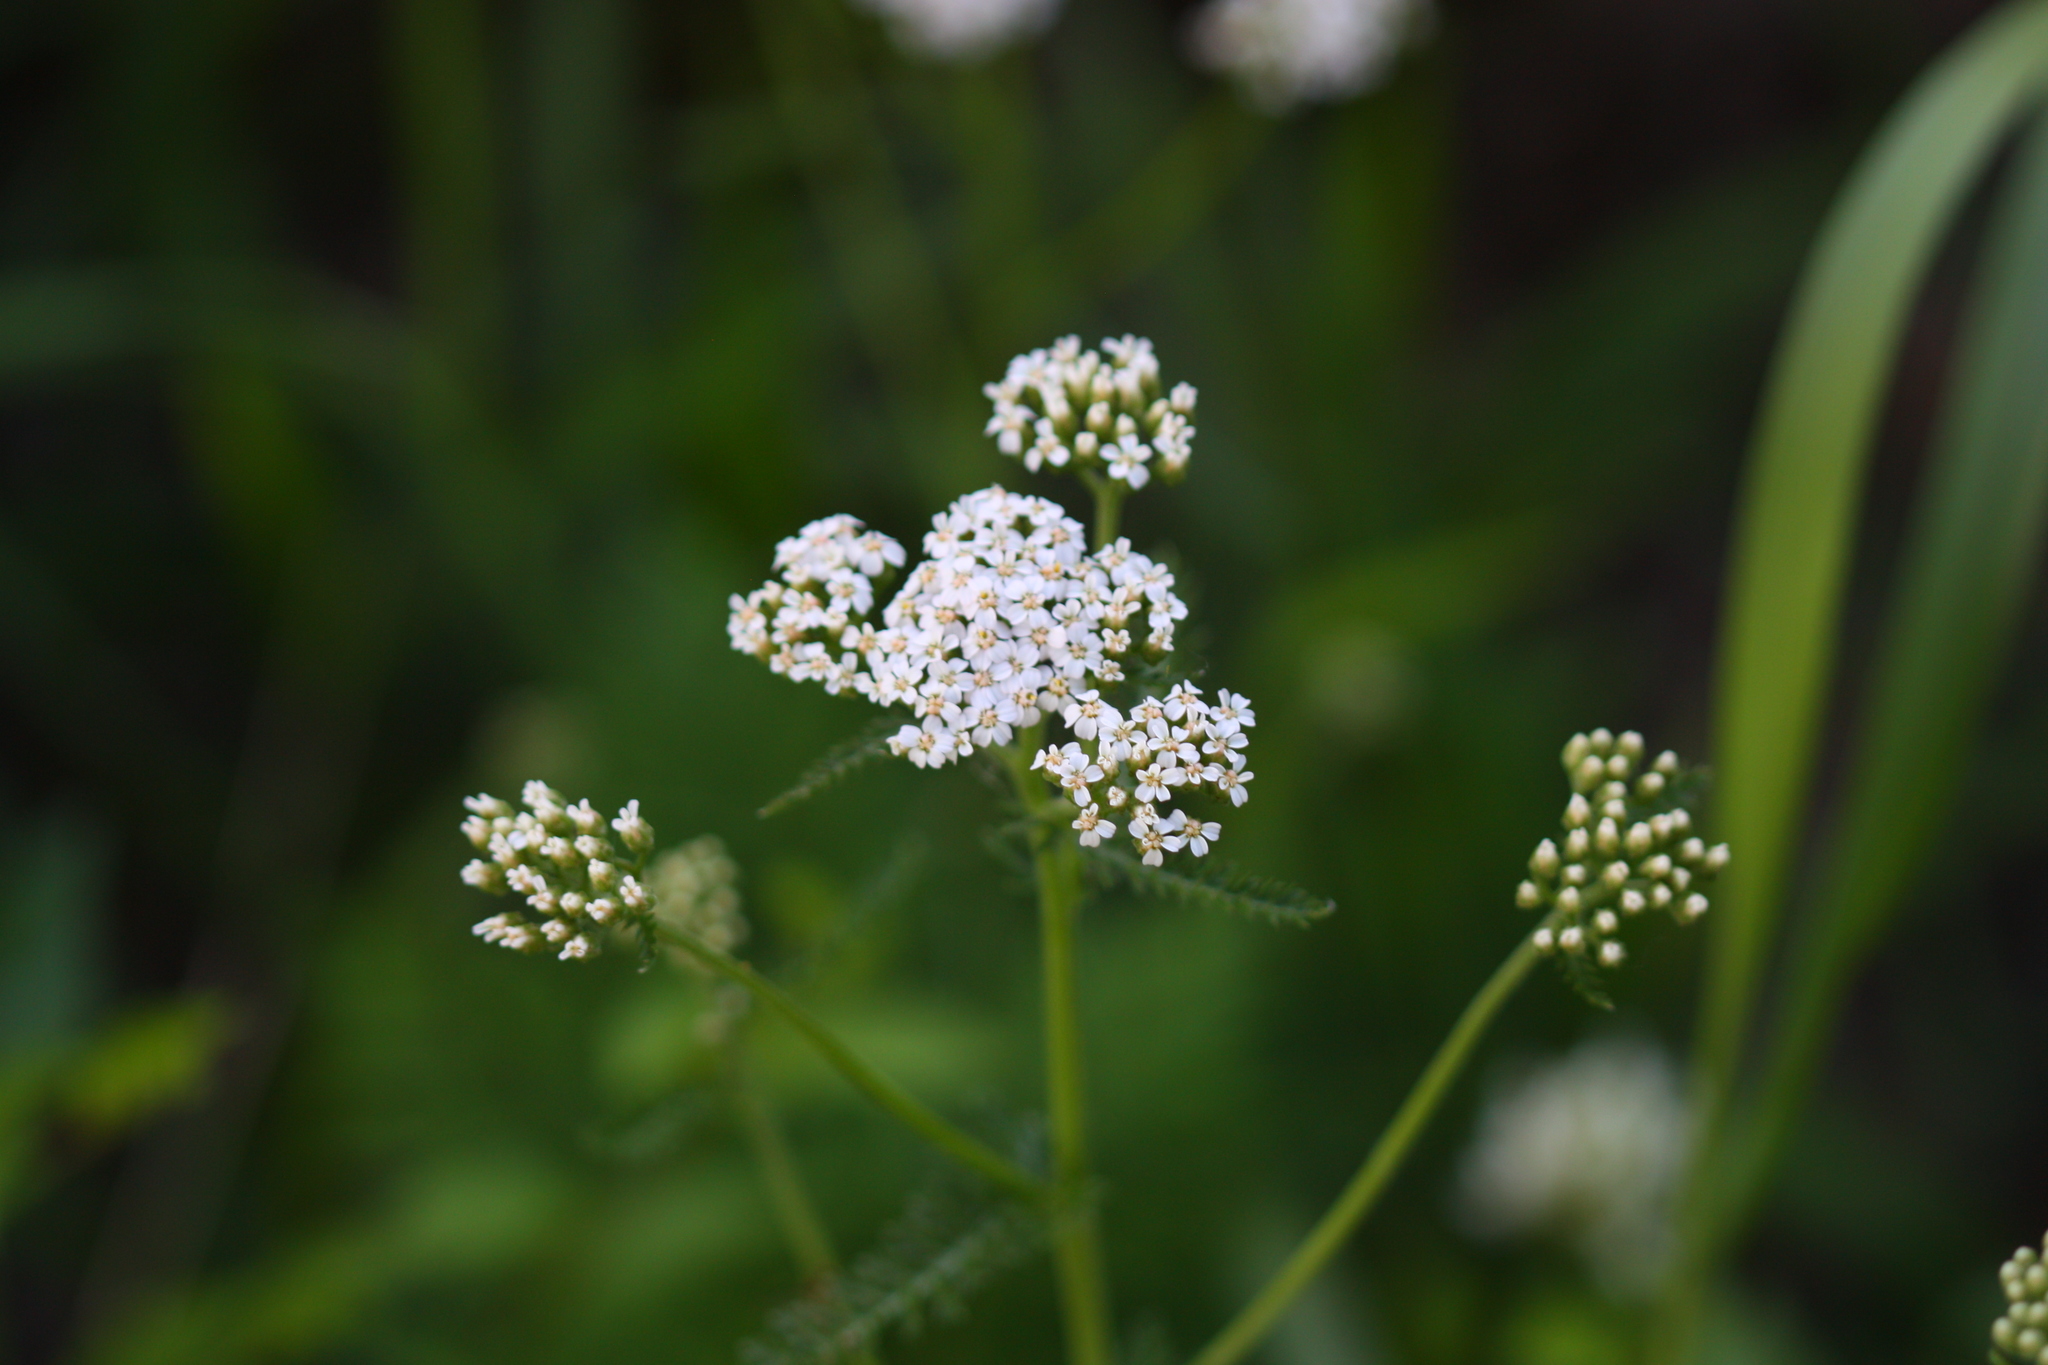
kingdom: Plantae
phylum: Tracheophyta
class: Magnoliopsida
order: Asterales
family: Asteraceae
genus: Achillea
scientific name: Achillea millefolium
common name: Yarrow
